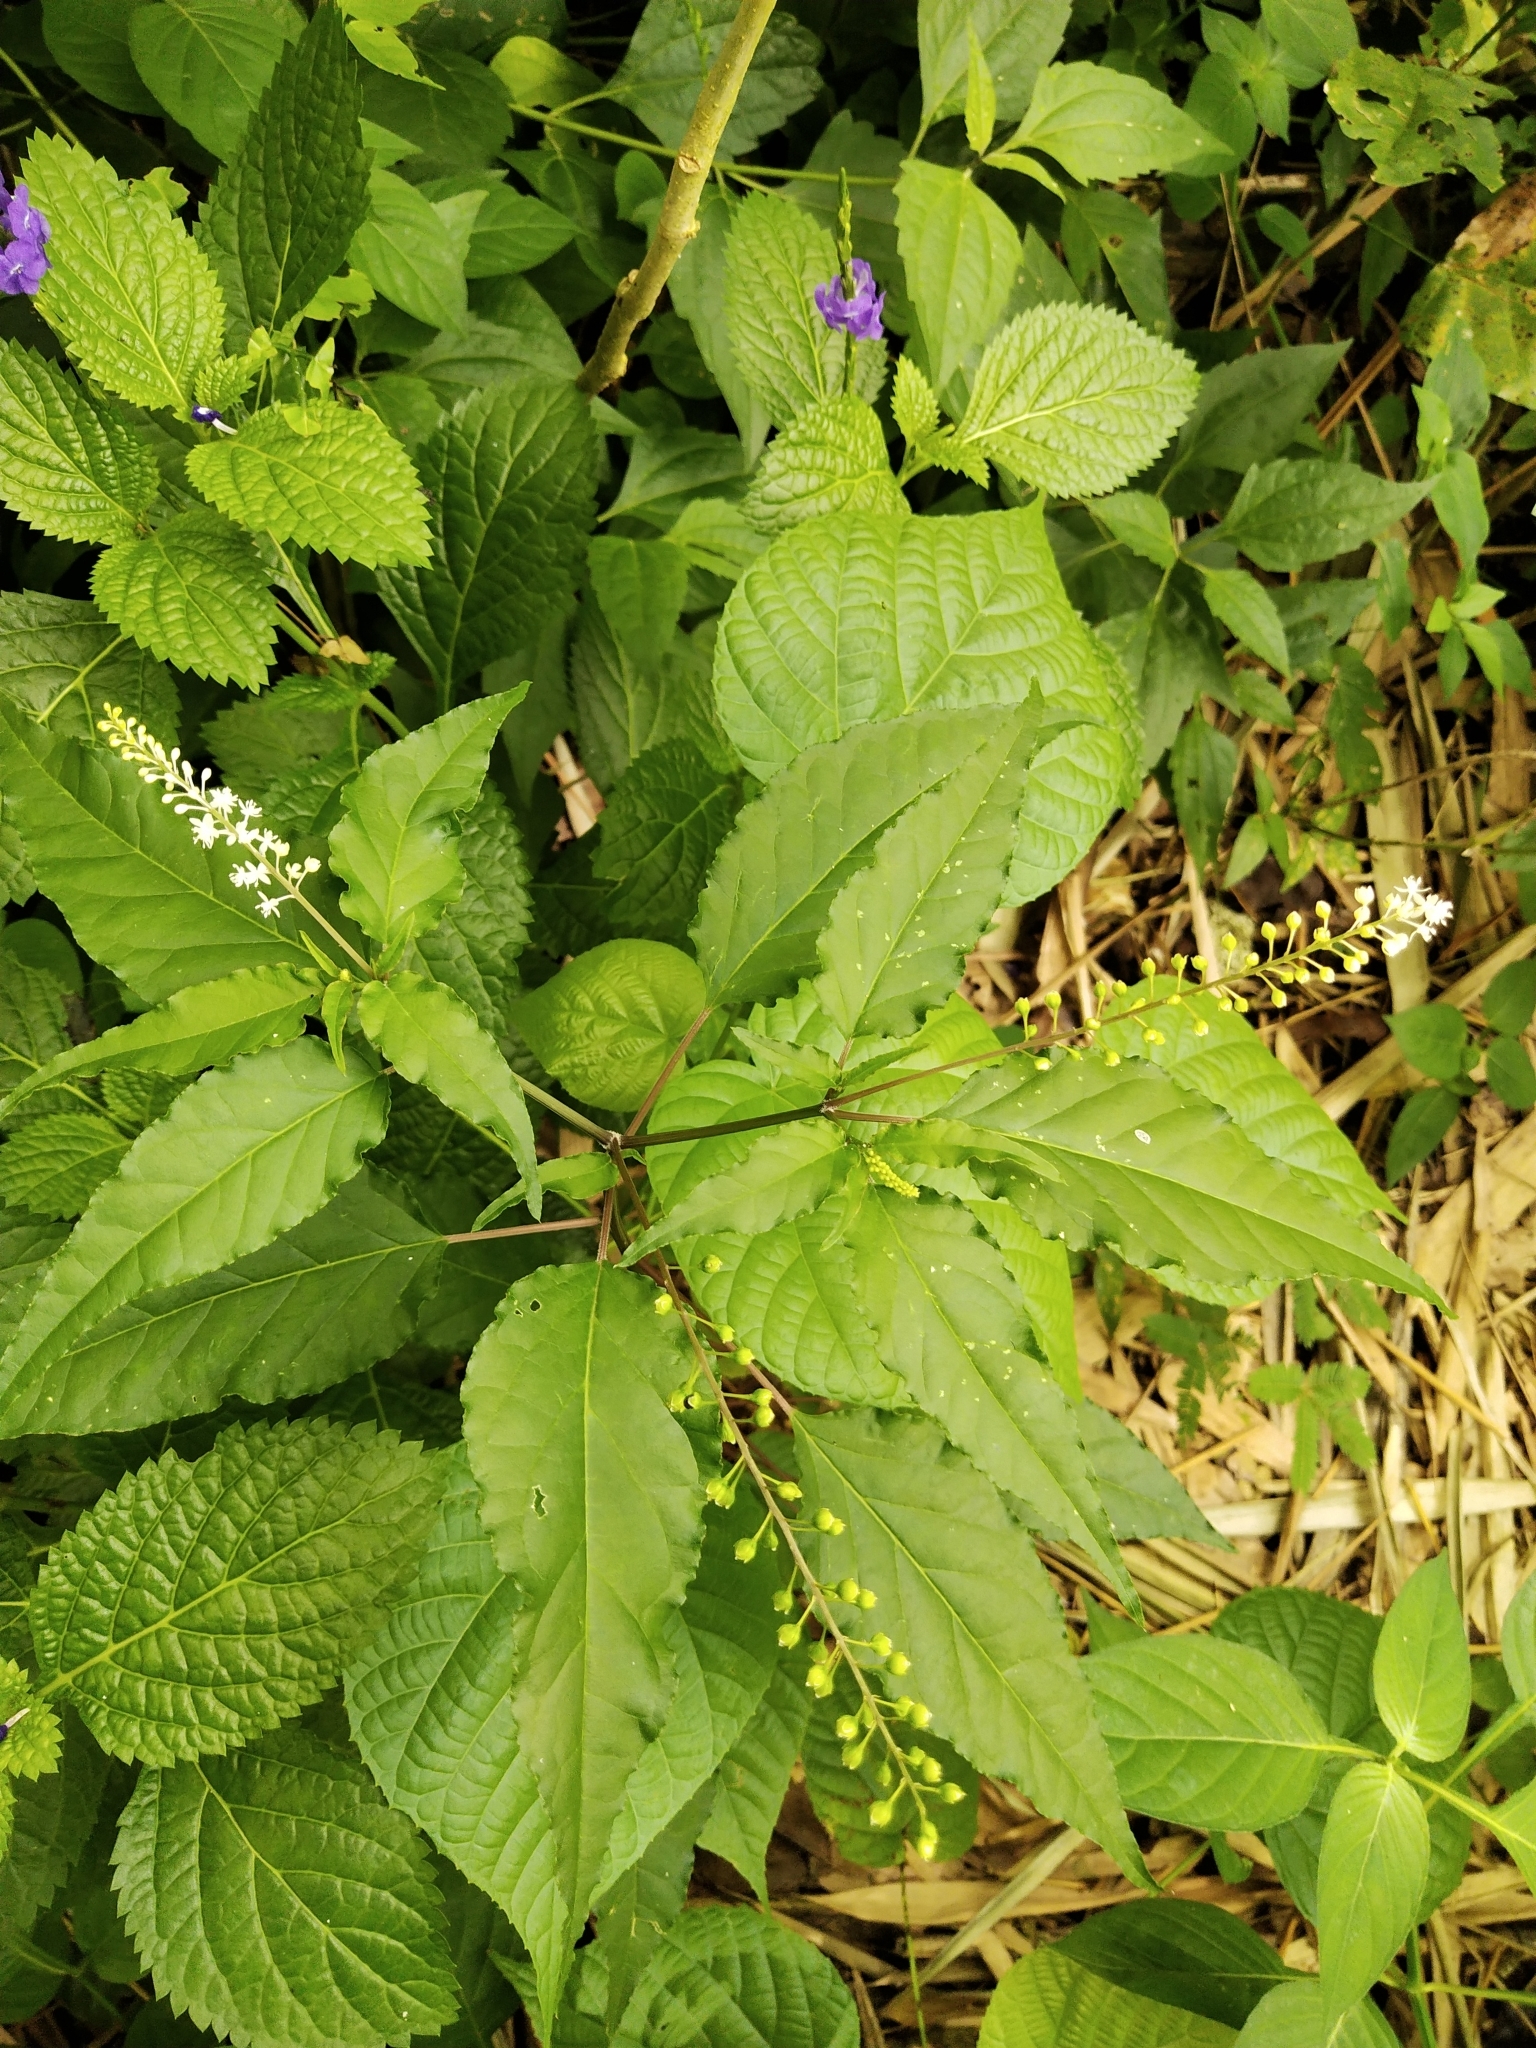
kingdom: Plantae
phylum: Tracheophyta
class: Magnoliopsida
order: Caryophyllales
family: Phytolaccaceae
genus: Rivina
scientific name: Rivina humilis
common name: Rougeplant
